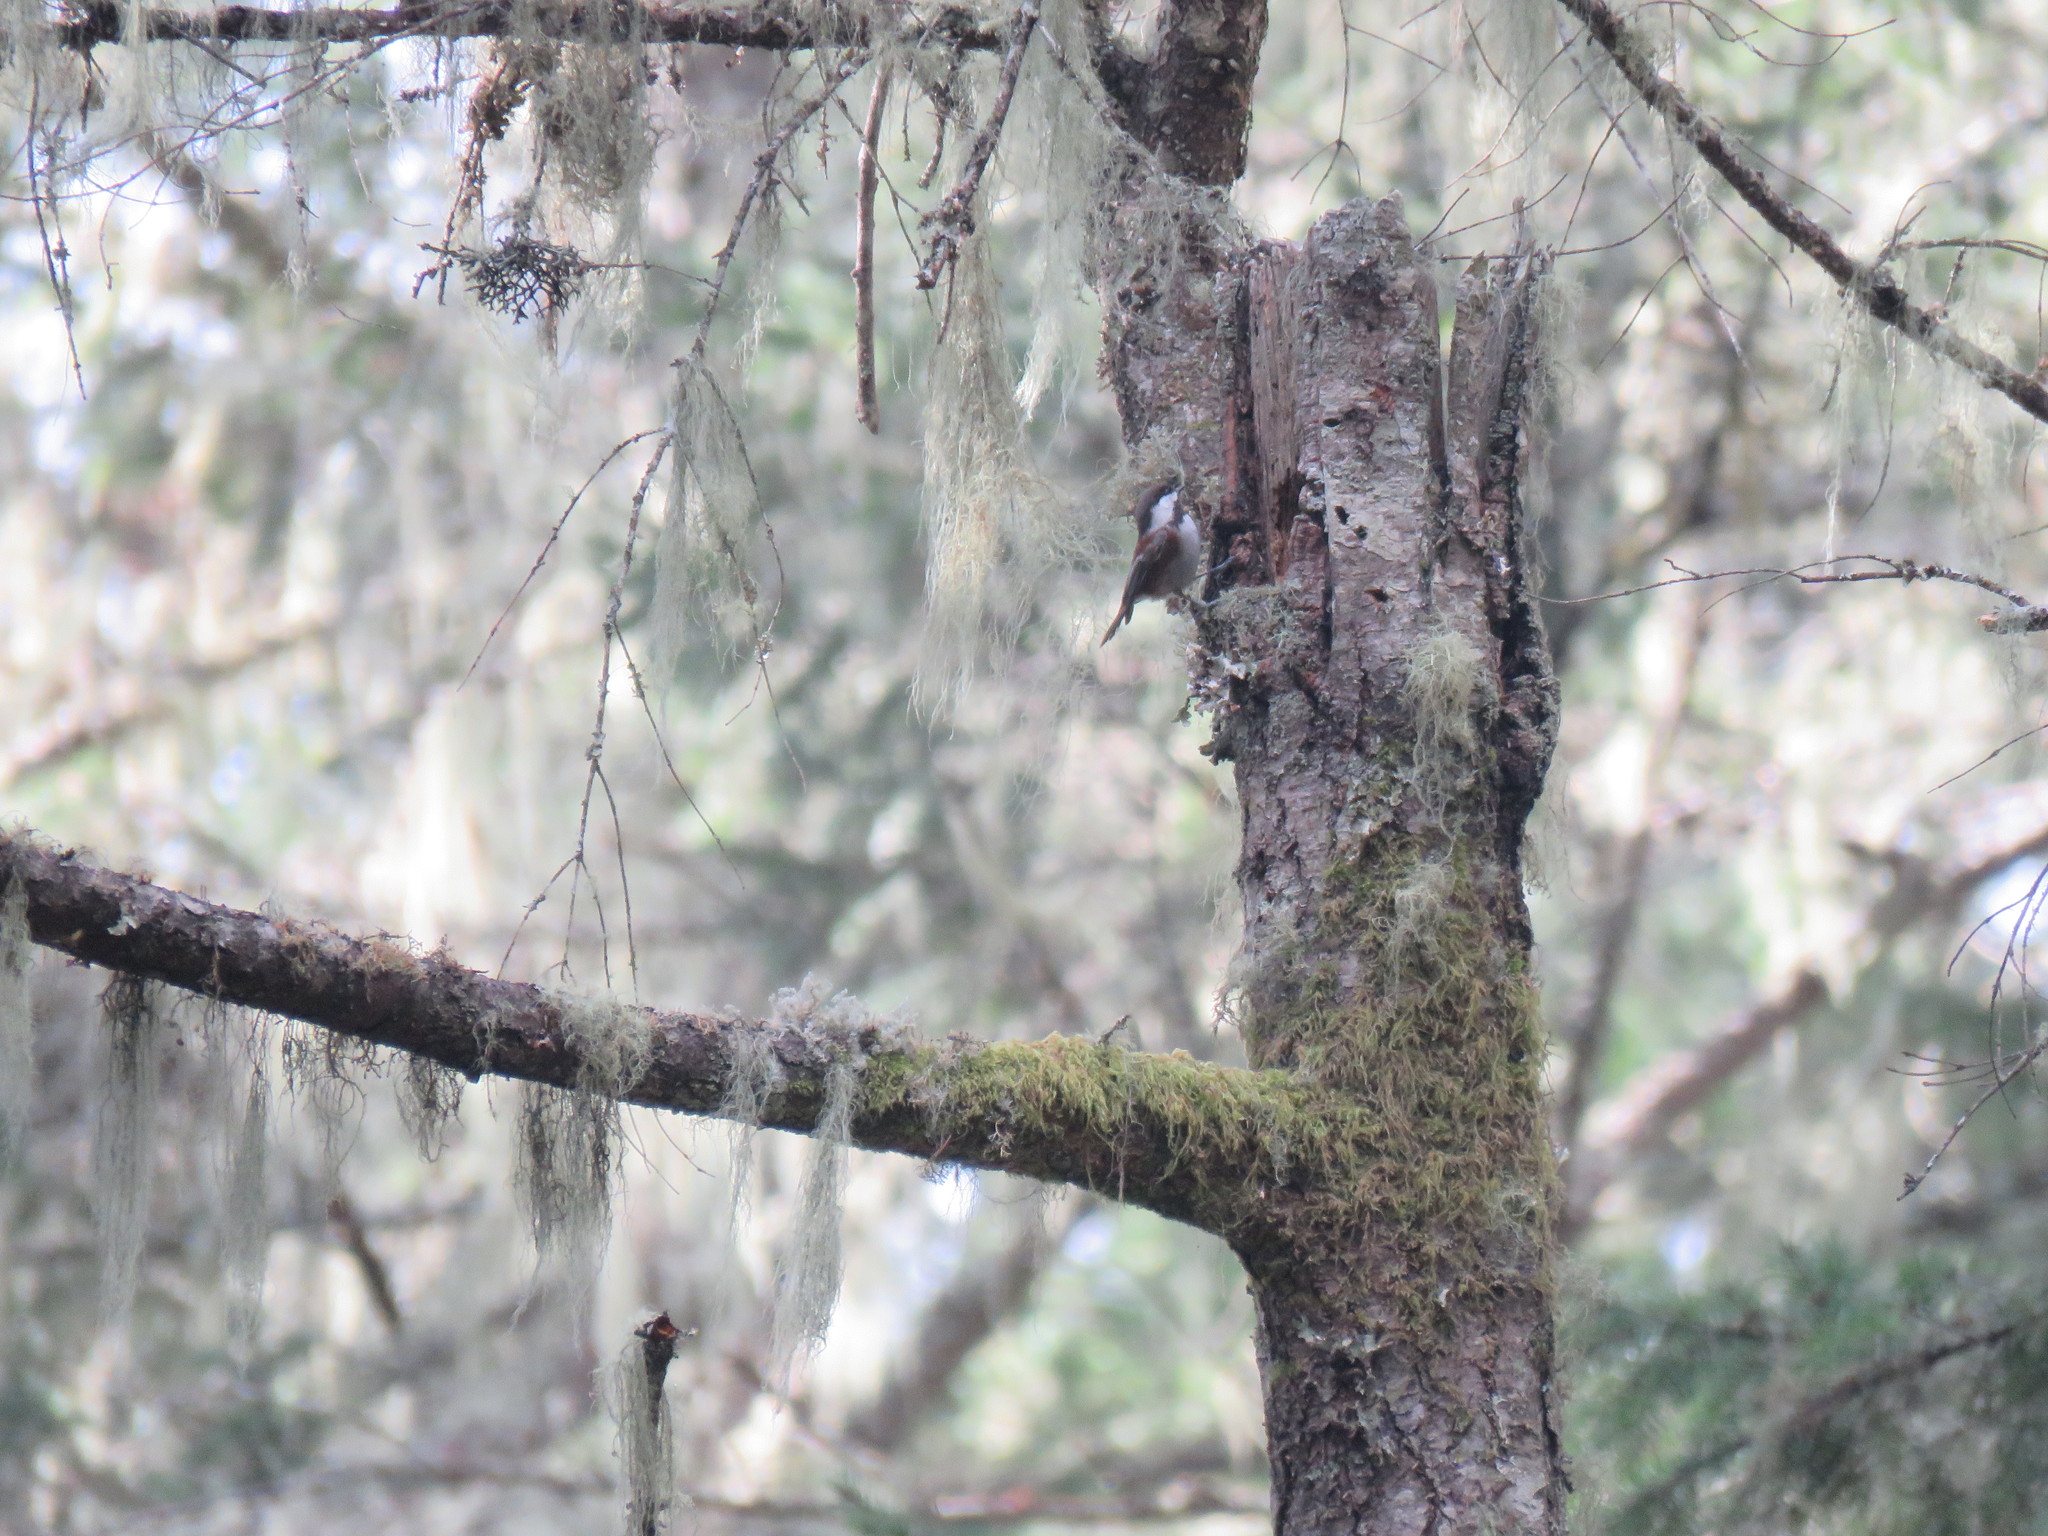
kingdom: Animalia
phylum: Chordata
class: Aves
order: Passeriformes
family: Paridae
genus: Poecile
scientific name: Poecile rufescens
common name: Chestnut-backed chickadee
